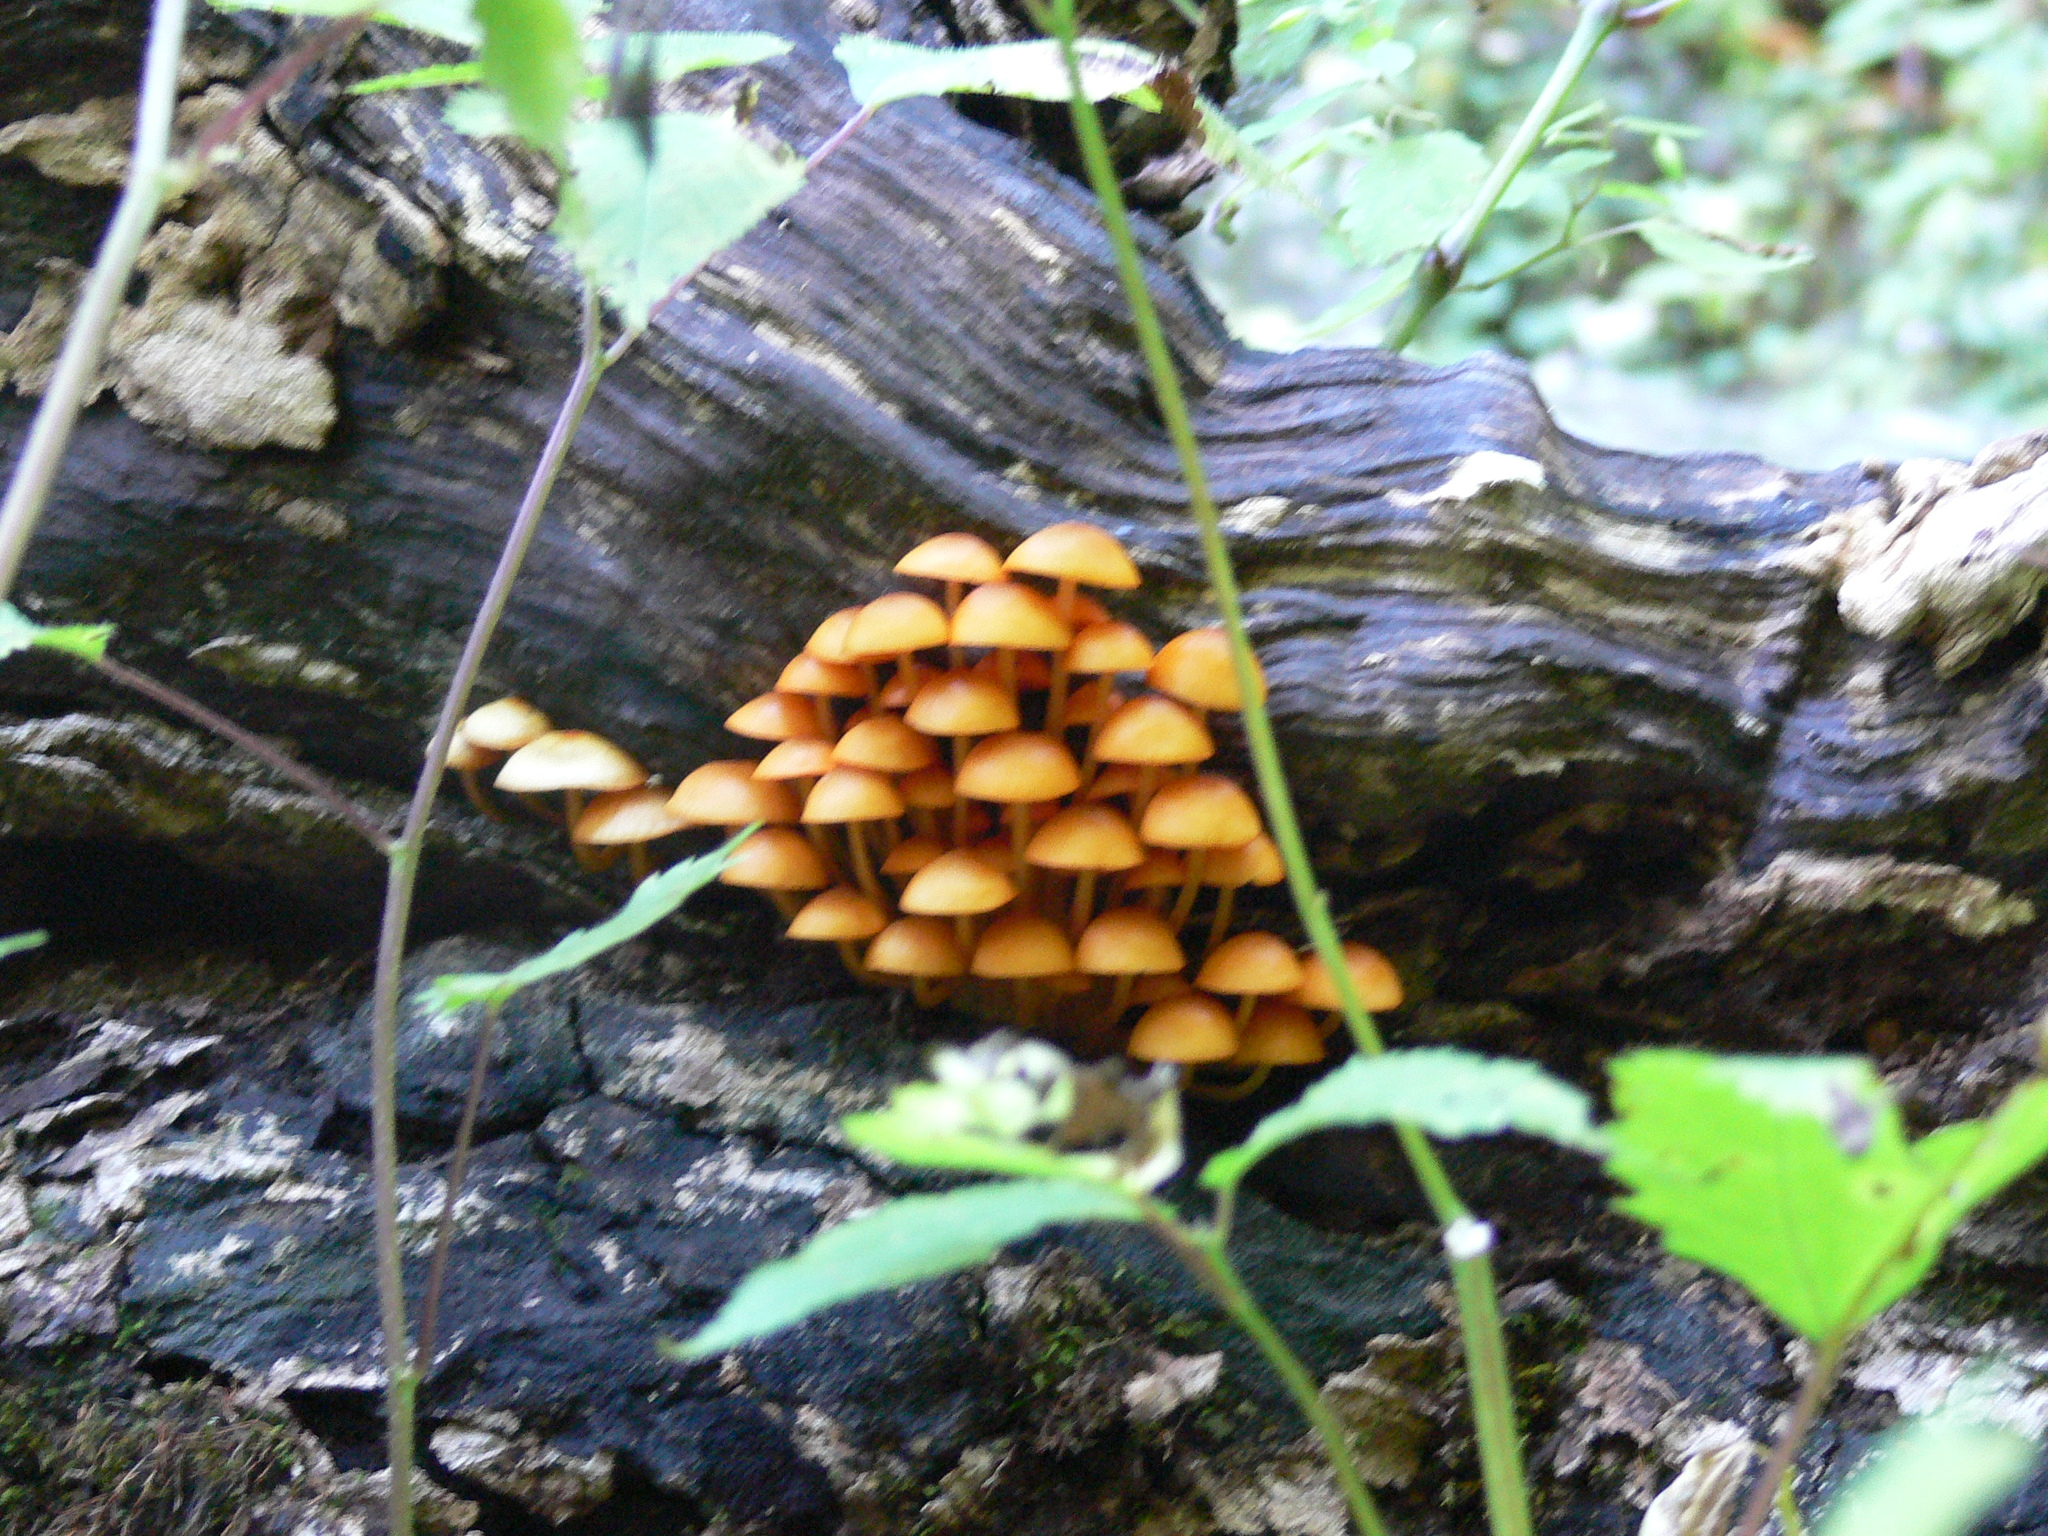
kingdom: Fungi
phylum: Basidiomycota
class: Agaricomycetes
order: Agaricales
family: Mycenaceae
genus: Mycena
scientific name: Mycena leaiana
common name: Orange mycena
